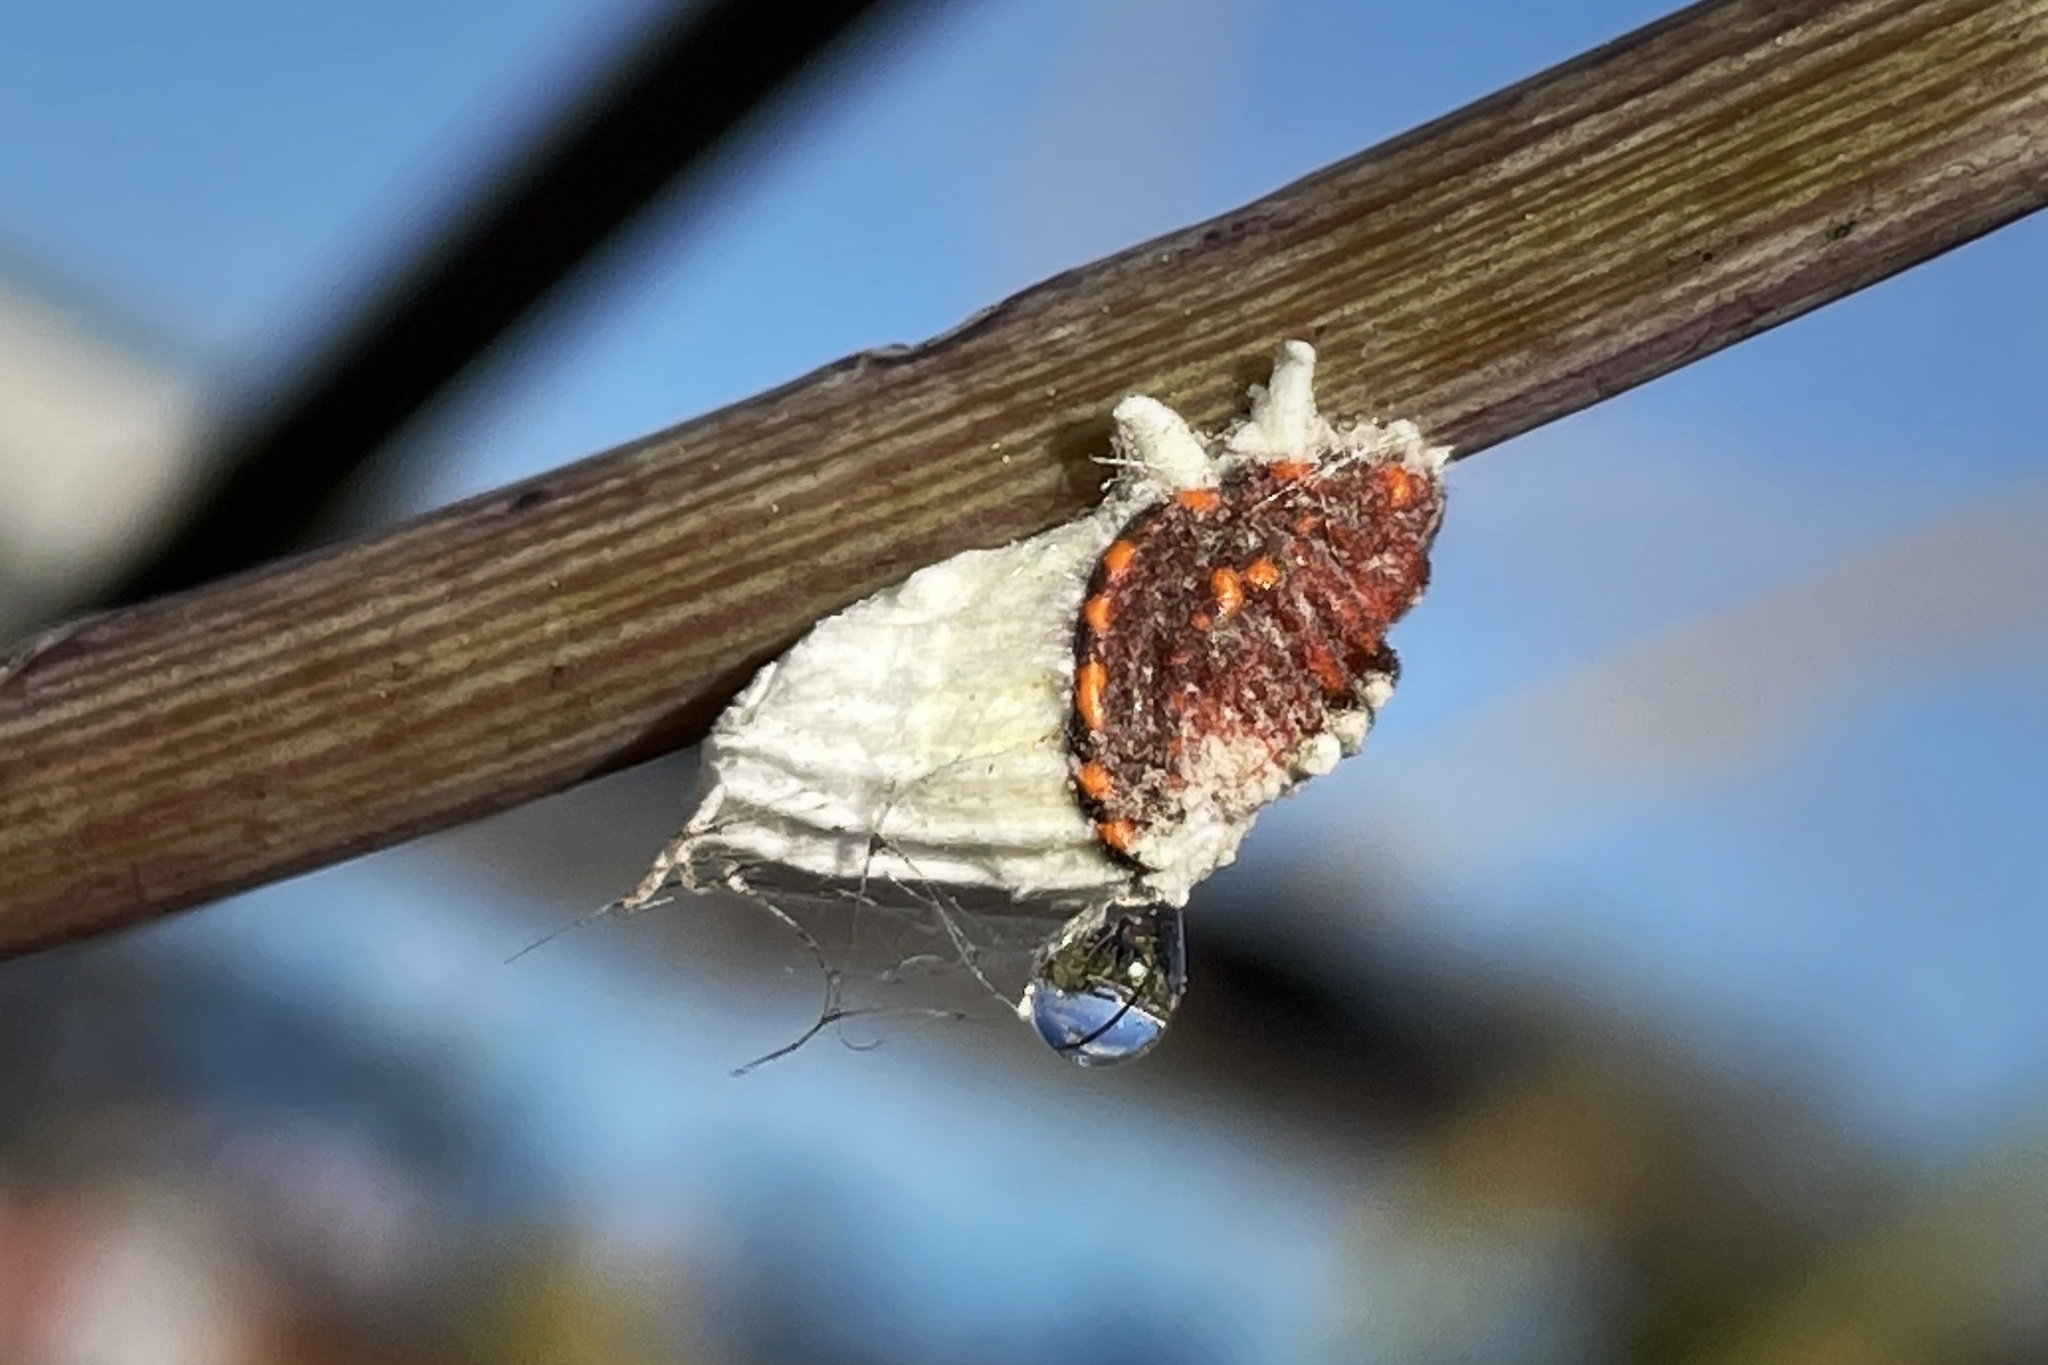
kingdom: Animalia
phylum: Arthropoda
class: Insecta
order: Hemiptera
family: Margarodidae
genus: Icerya
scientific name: Icerya purchasi
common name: Cottony cushion scale
